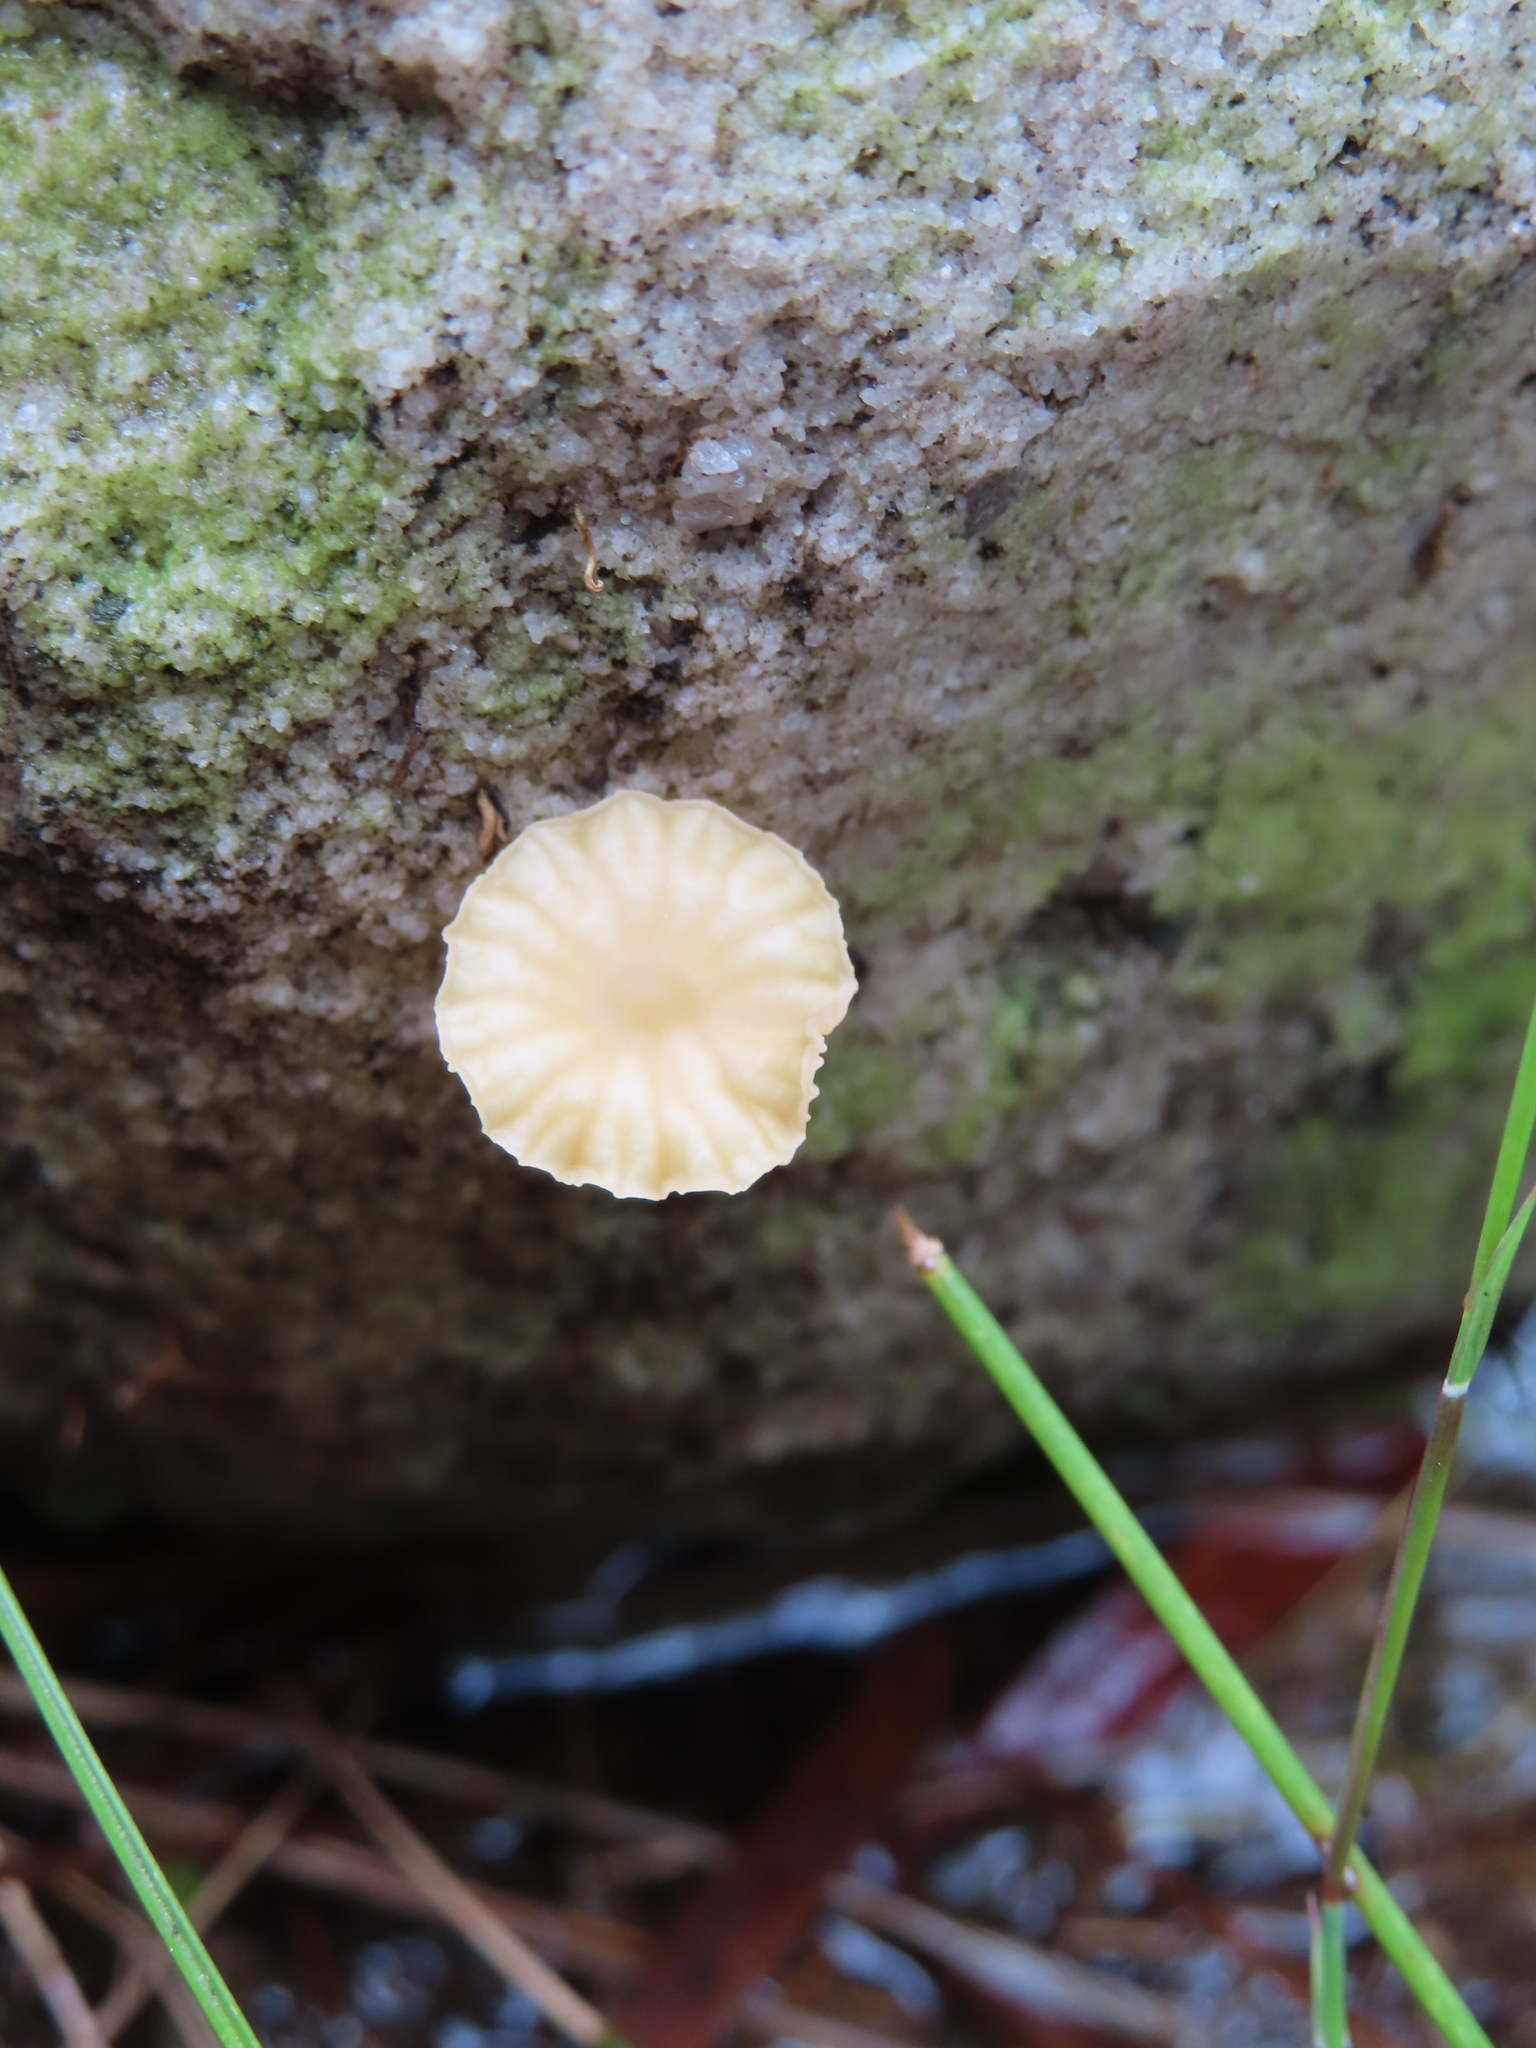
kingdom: Fungi
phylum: Basidiomycota
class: Agaricomycetes
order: Agaricales
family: Hydnangiaceae
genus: Laccaria
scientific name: Laccaria tortilis
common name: Twisted deceiver
